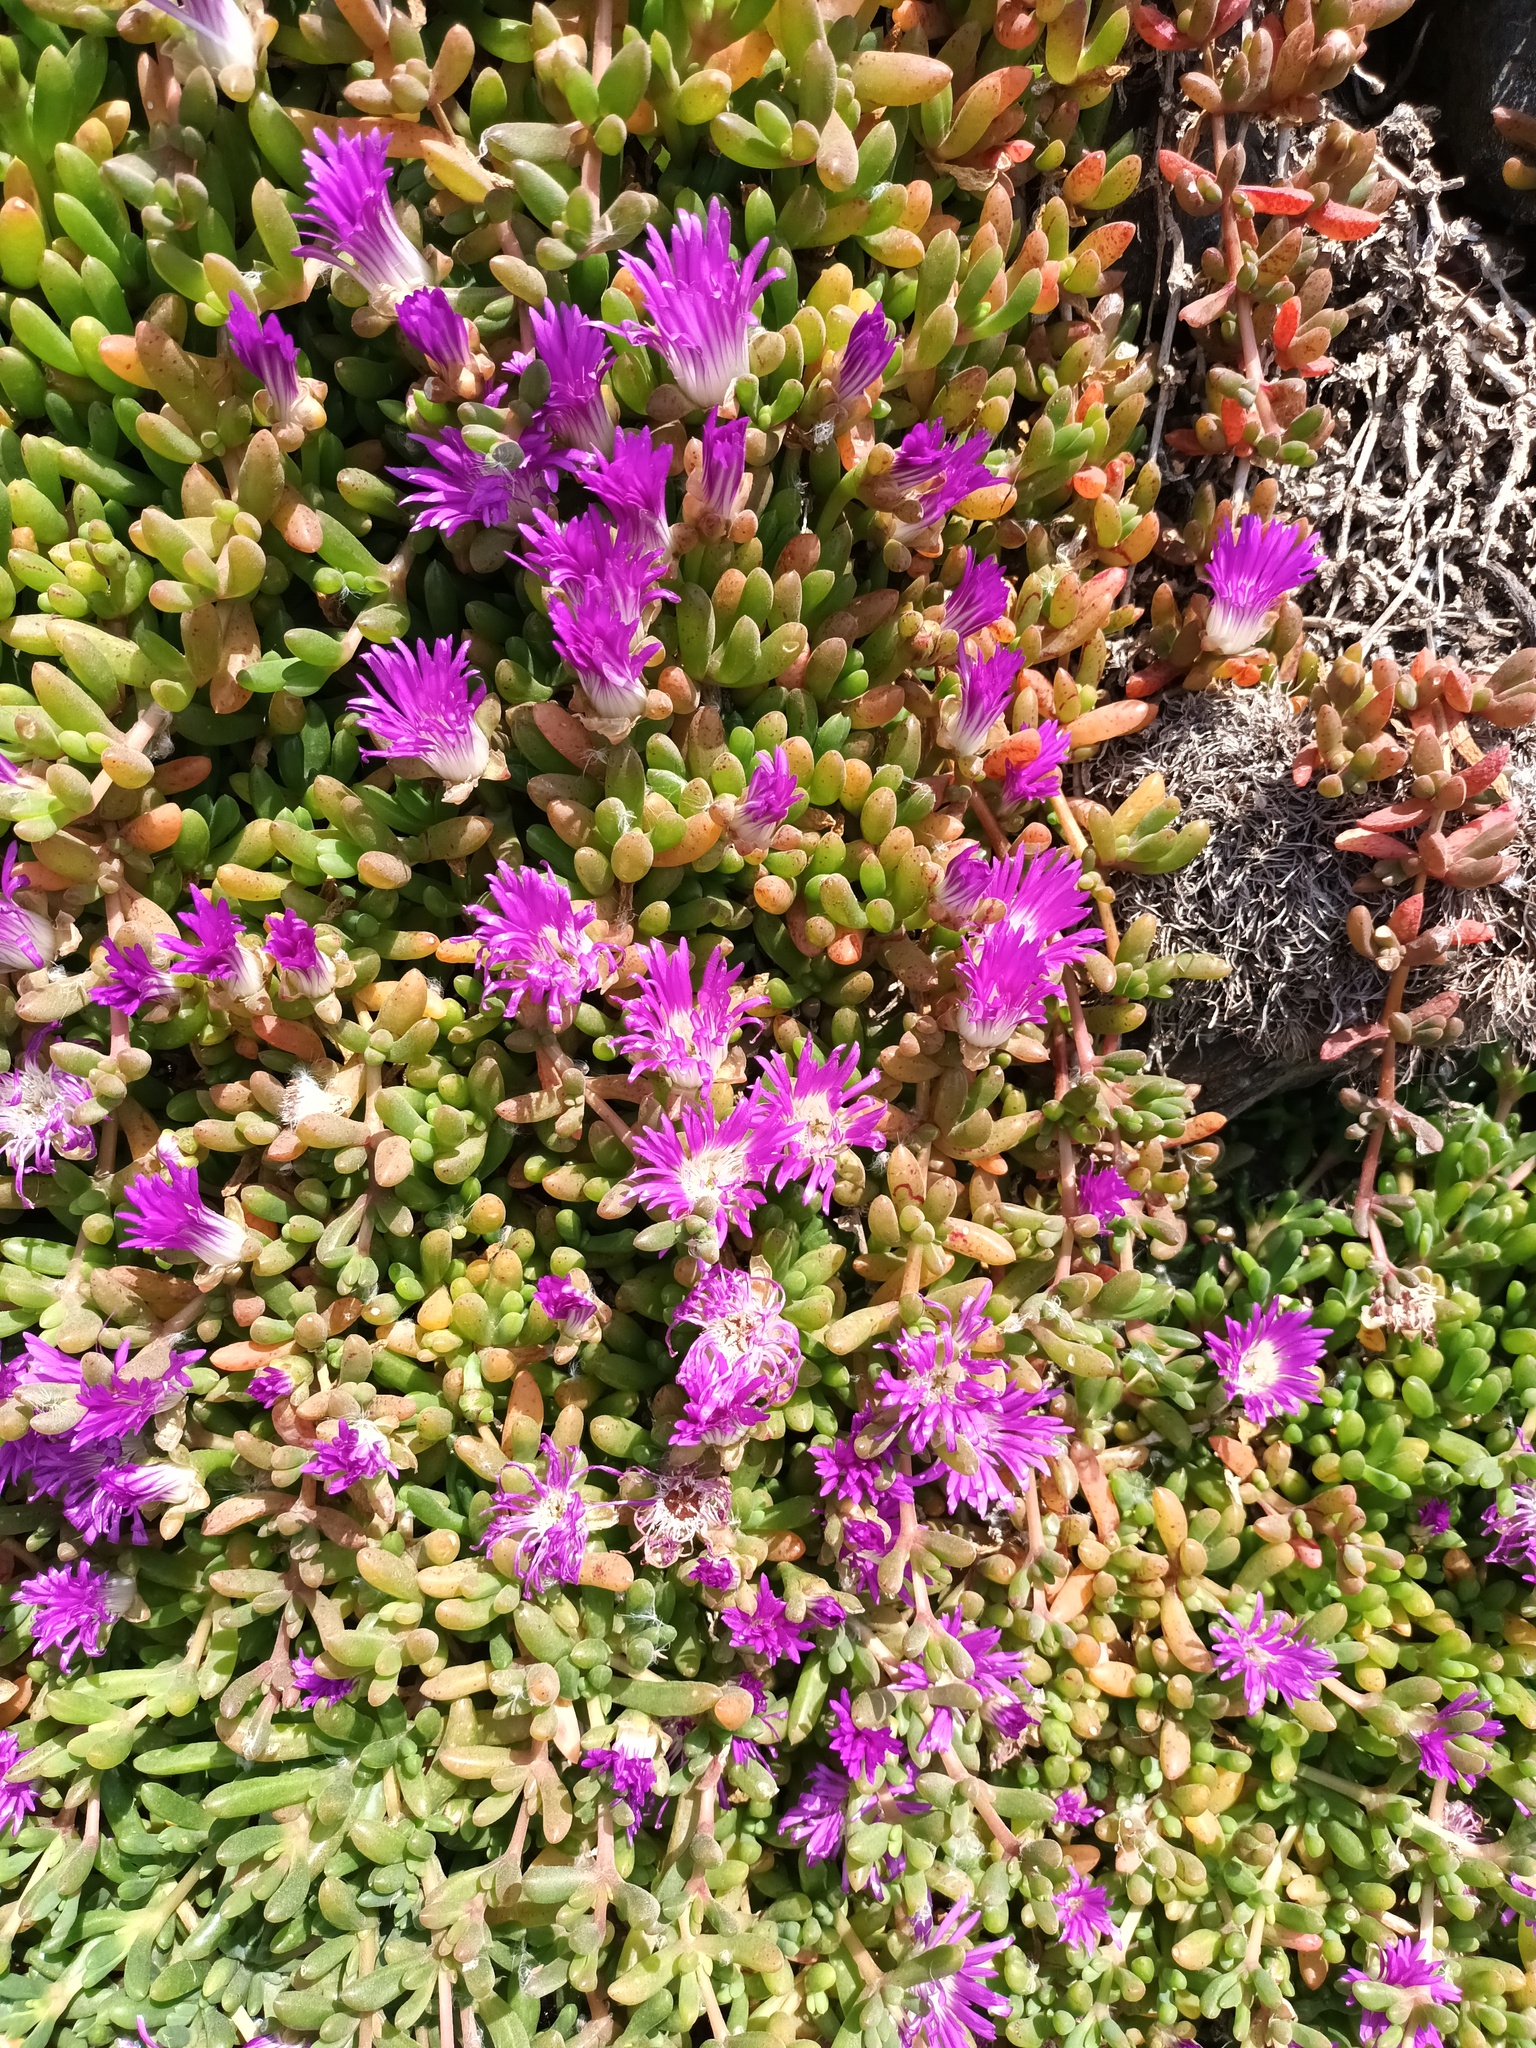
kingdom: Plantae
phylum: Tracheophyta
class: Magnoliopsida
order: Caryophyllales
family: Aizoaceae
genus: Disphyma
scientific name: Disphyma crassifolium
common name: Purple dewplant
